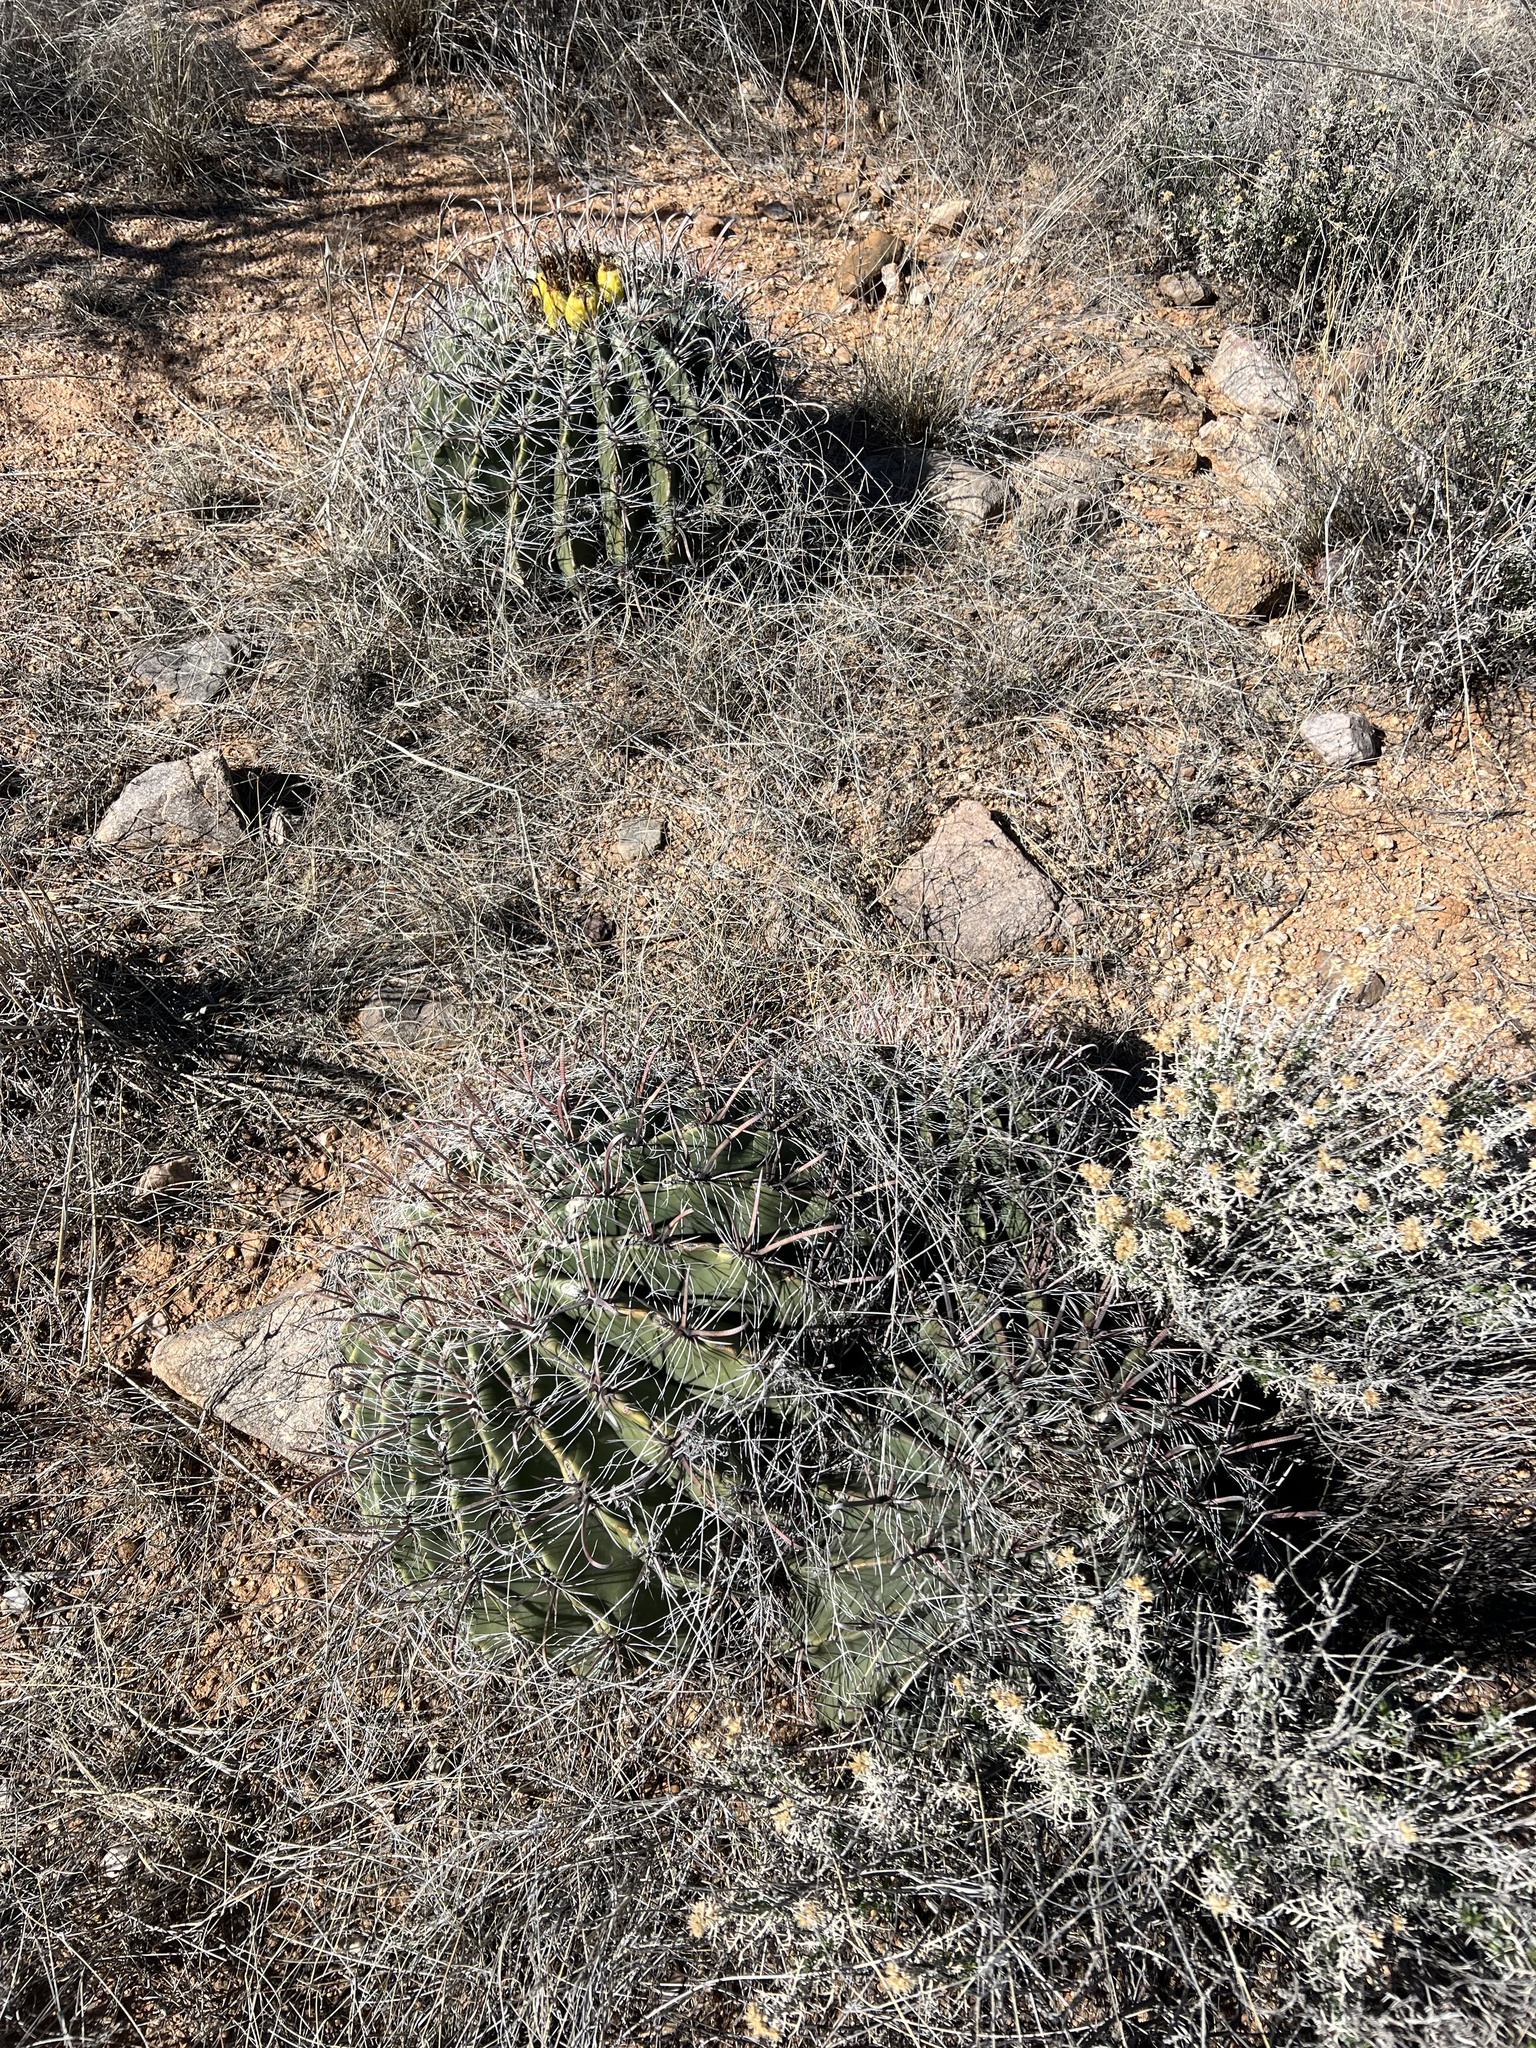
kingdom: Plantae
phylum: Tracheophyta
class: Magnoliopsida
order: Caryophyllales
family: Cactaceae
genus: Ferocactus
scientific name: Ferocactus wislizeni
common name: Candy barrel cactus
